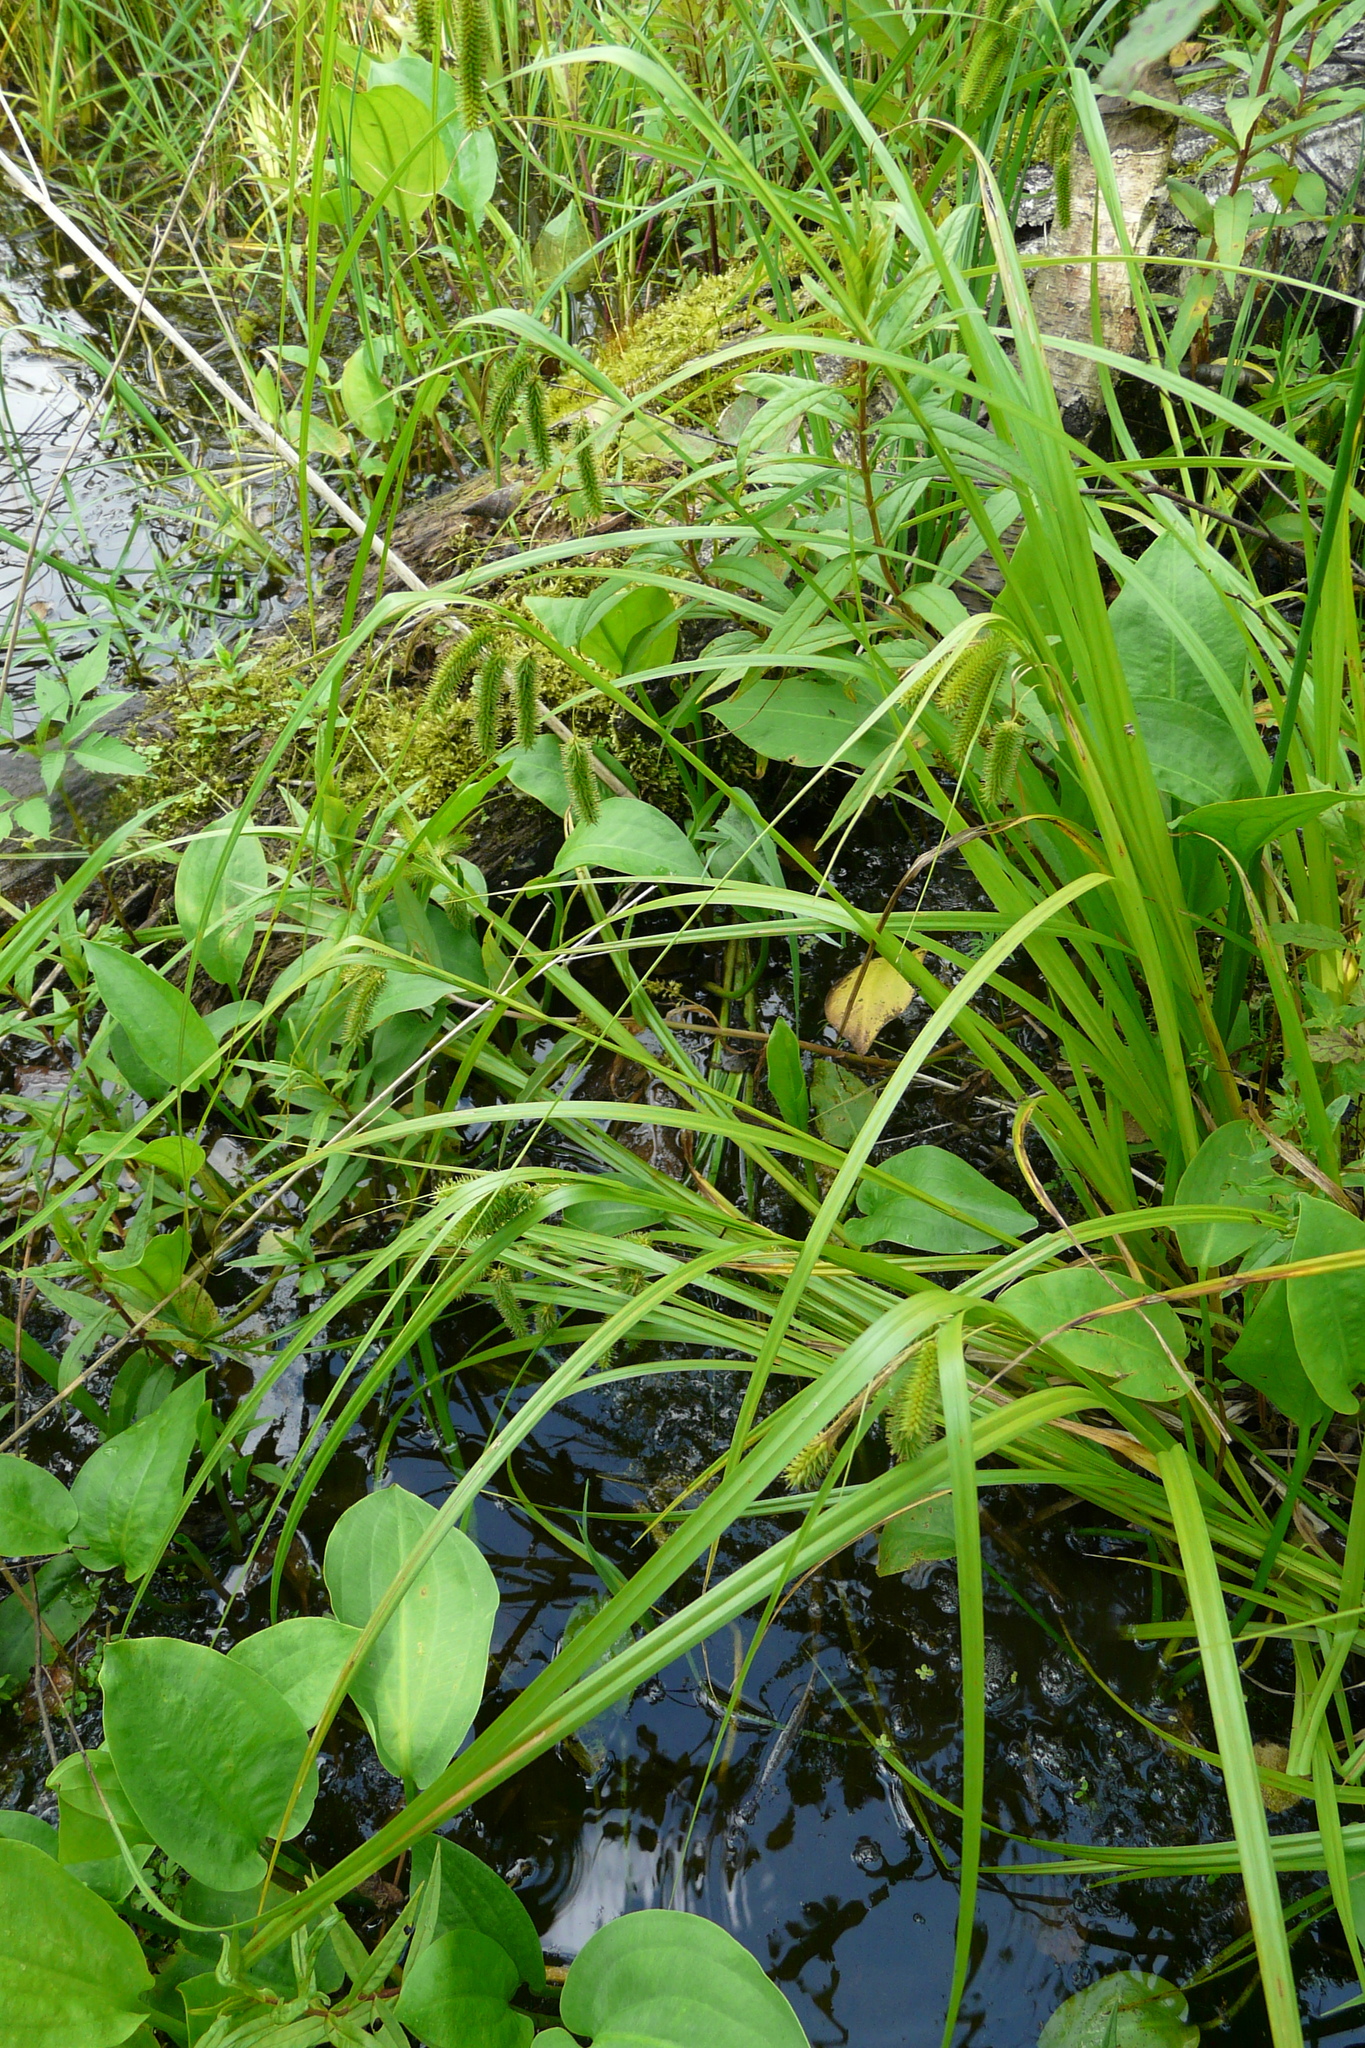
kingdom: Plantae
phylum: Tracheophyta
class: Liliopsida
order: Poales
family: Cyperaceae
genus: Carex
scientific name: Carex pseudocyperus
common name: Cyperus sedge
